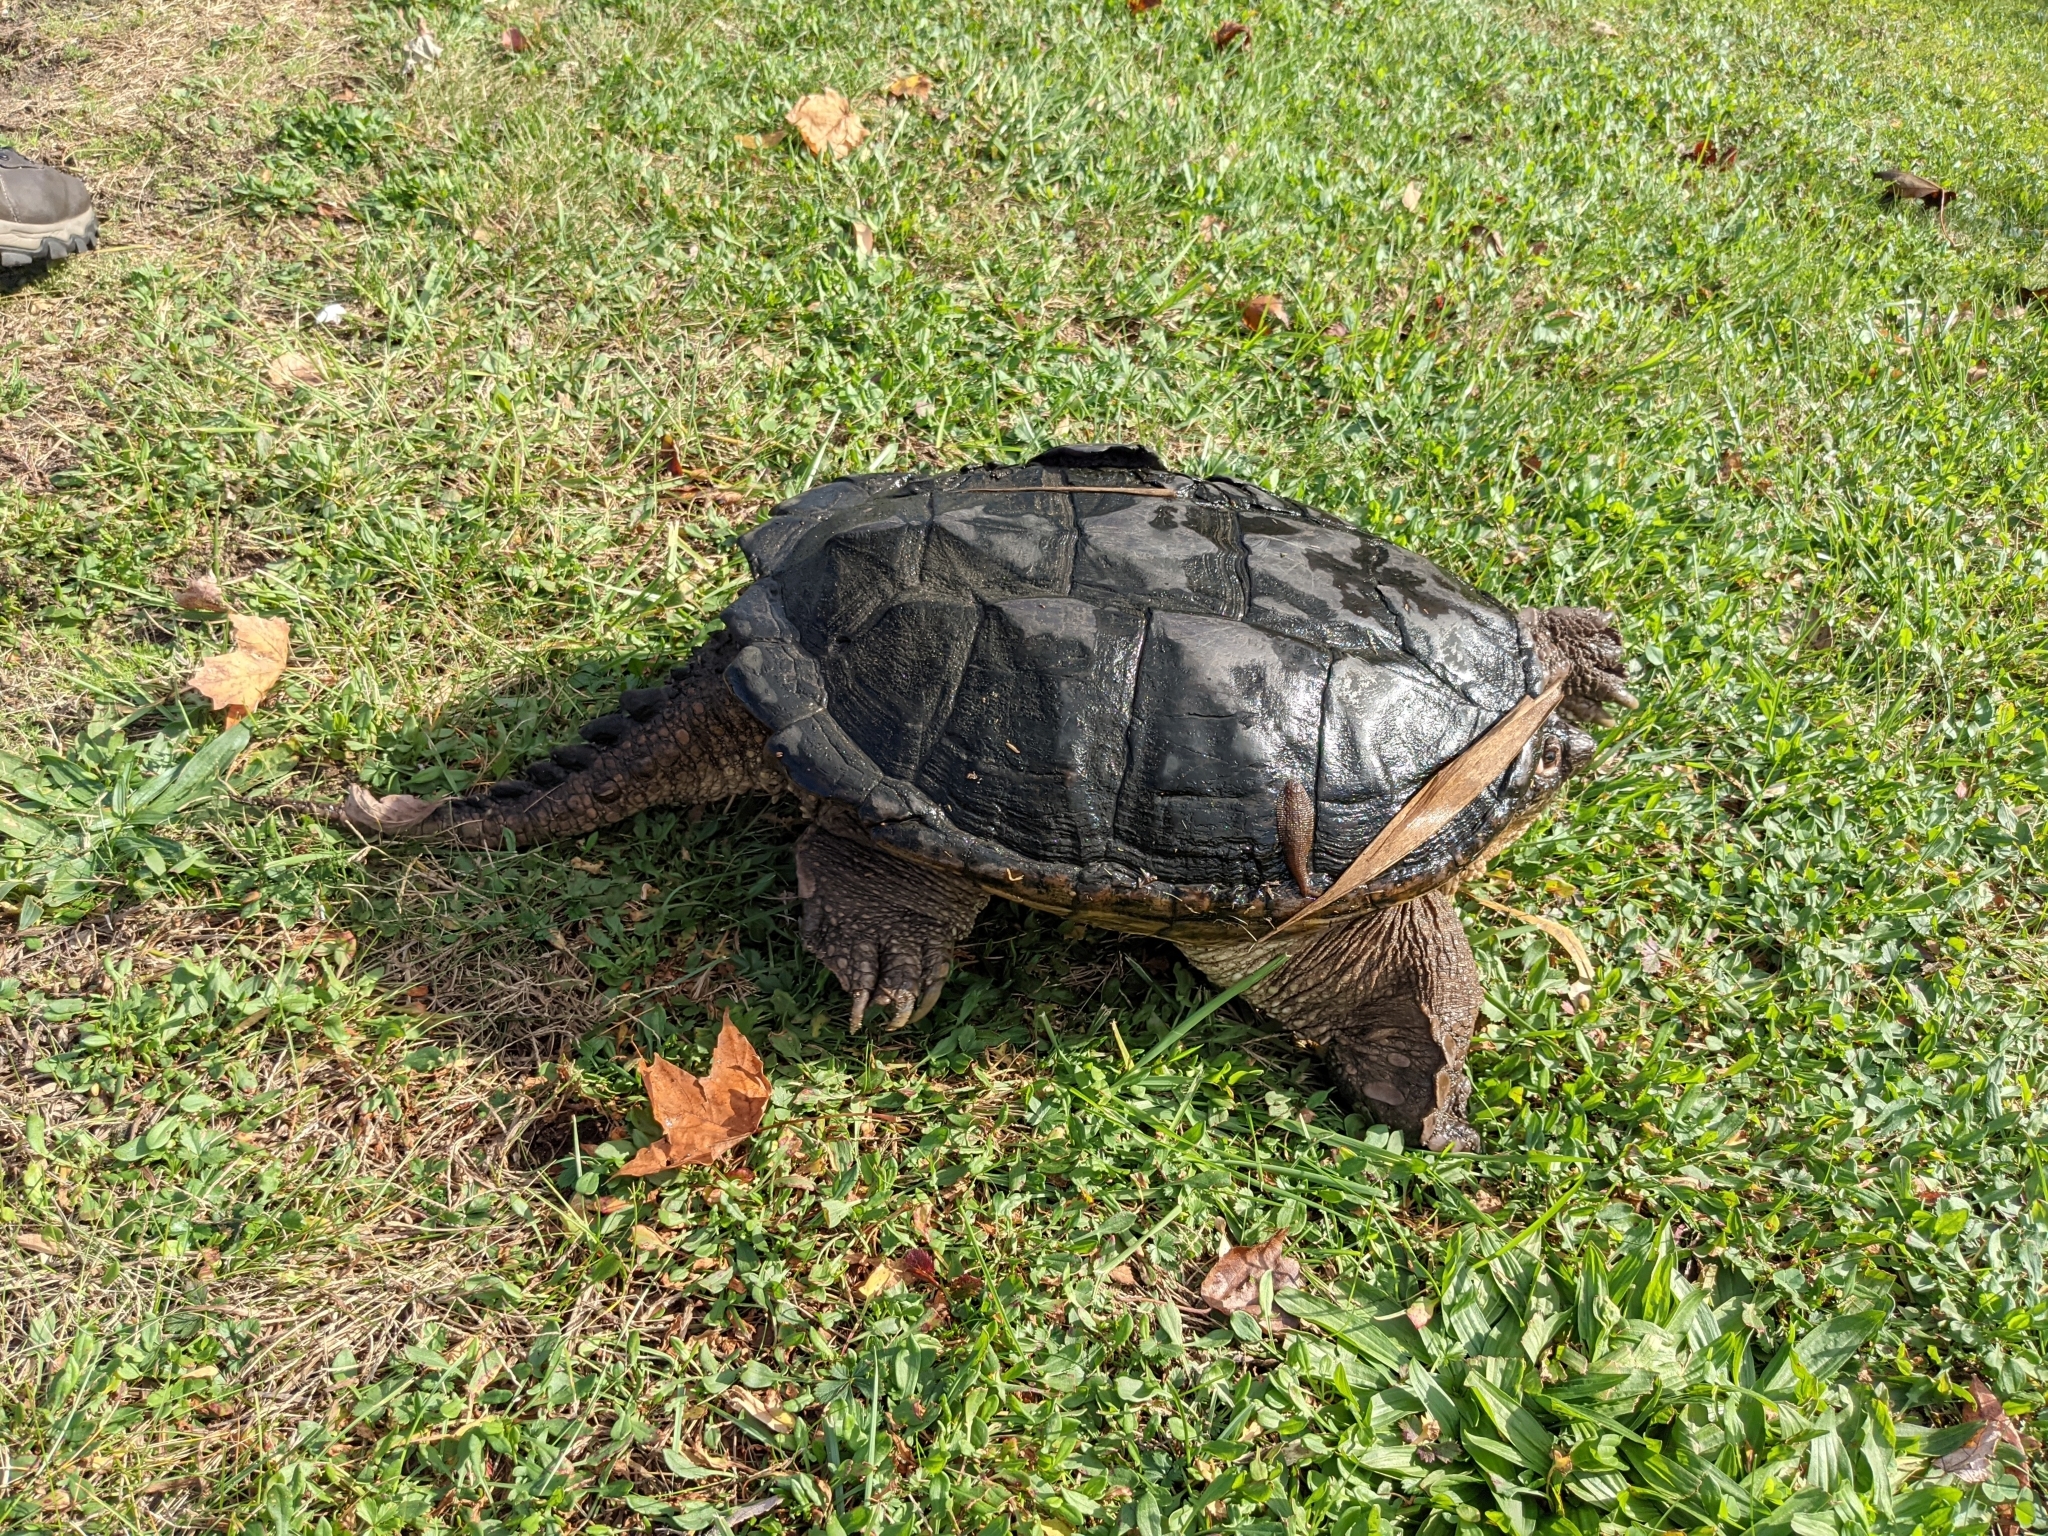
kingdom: Animalia
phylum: Chordata
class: Testudines
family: Chelydridae
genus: Chelydra
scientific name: Chelydra serpentina
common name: Common snapping turtle
